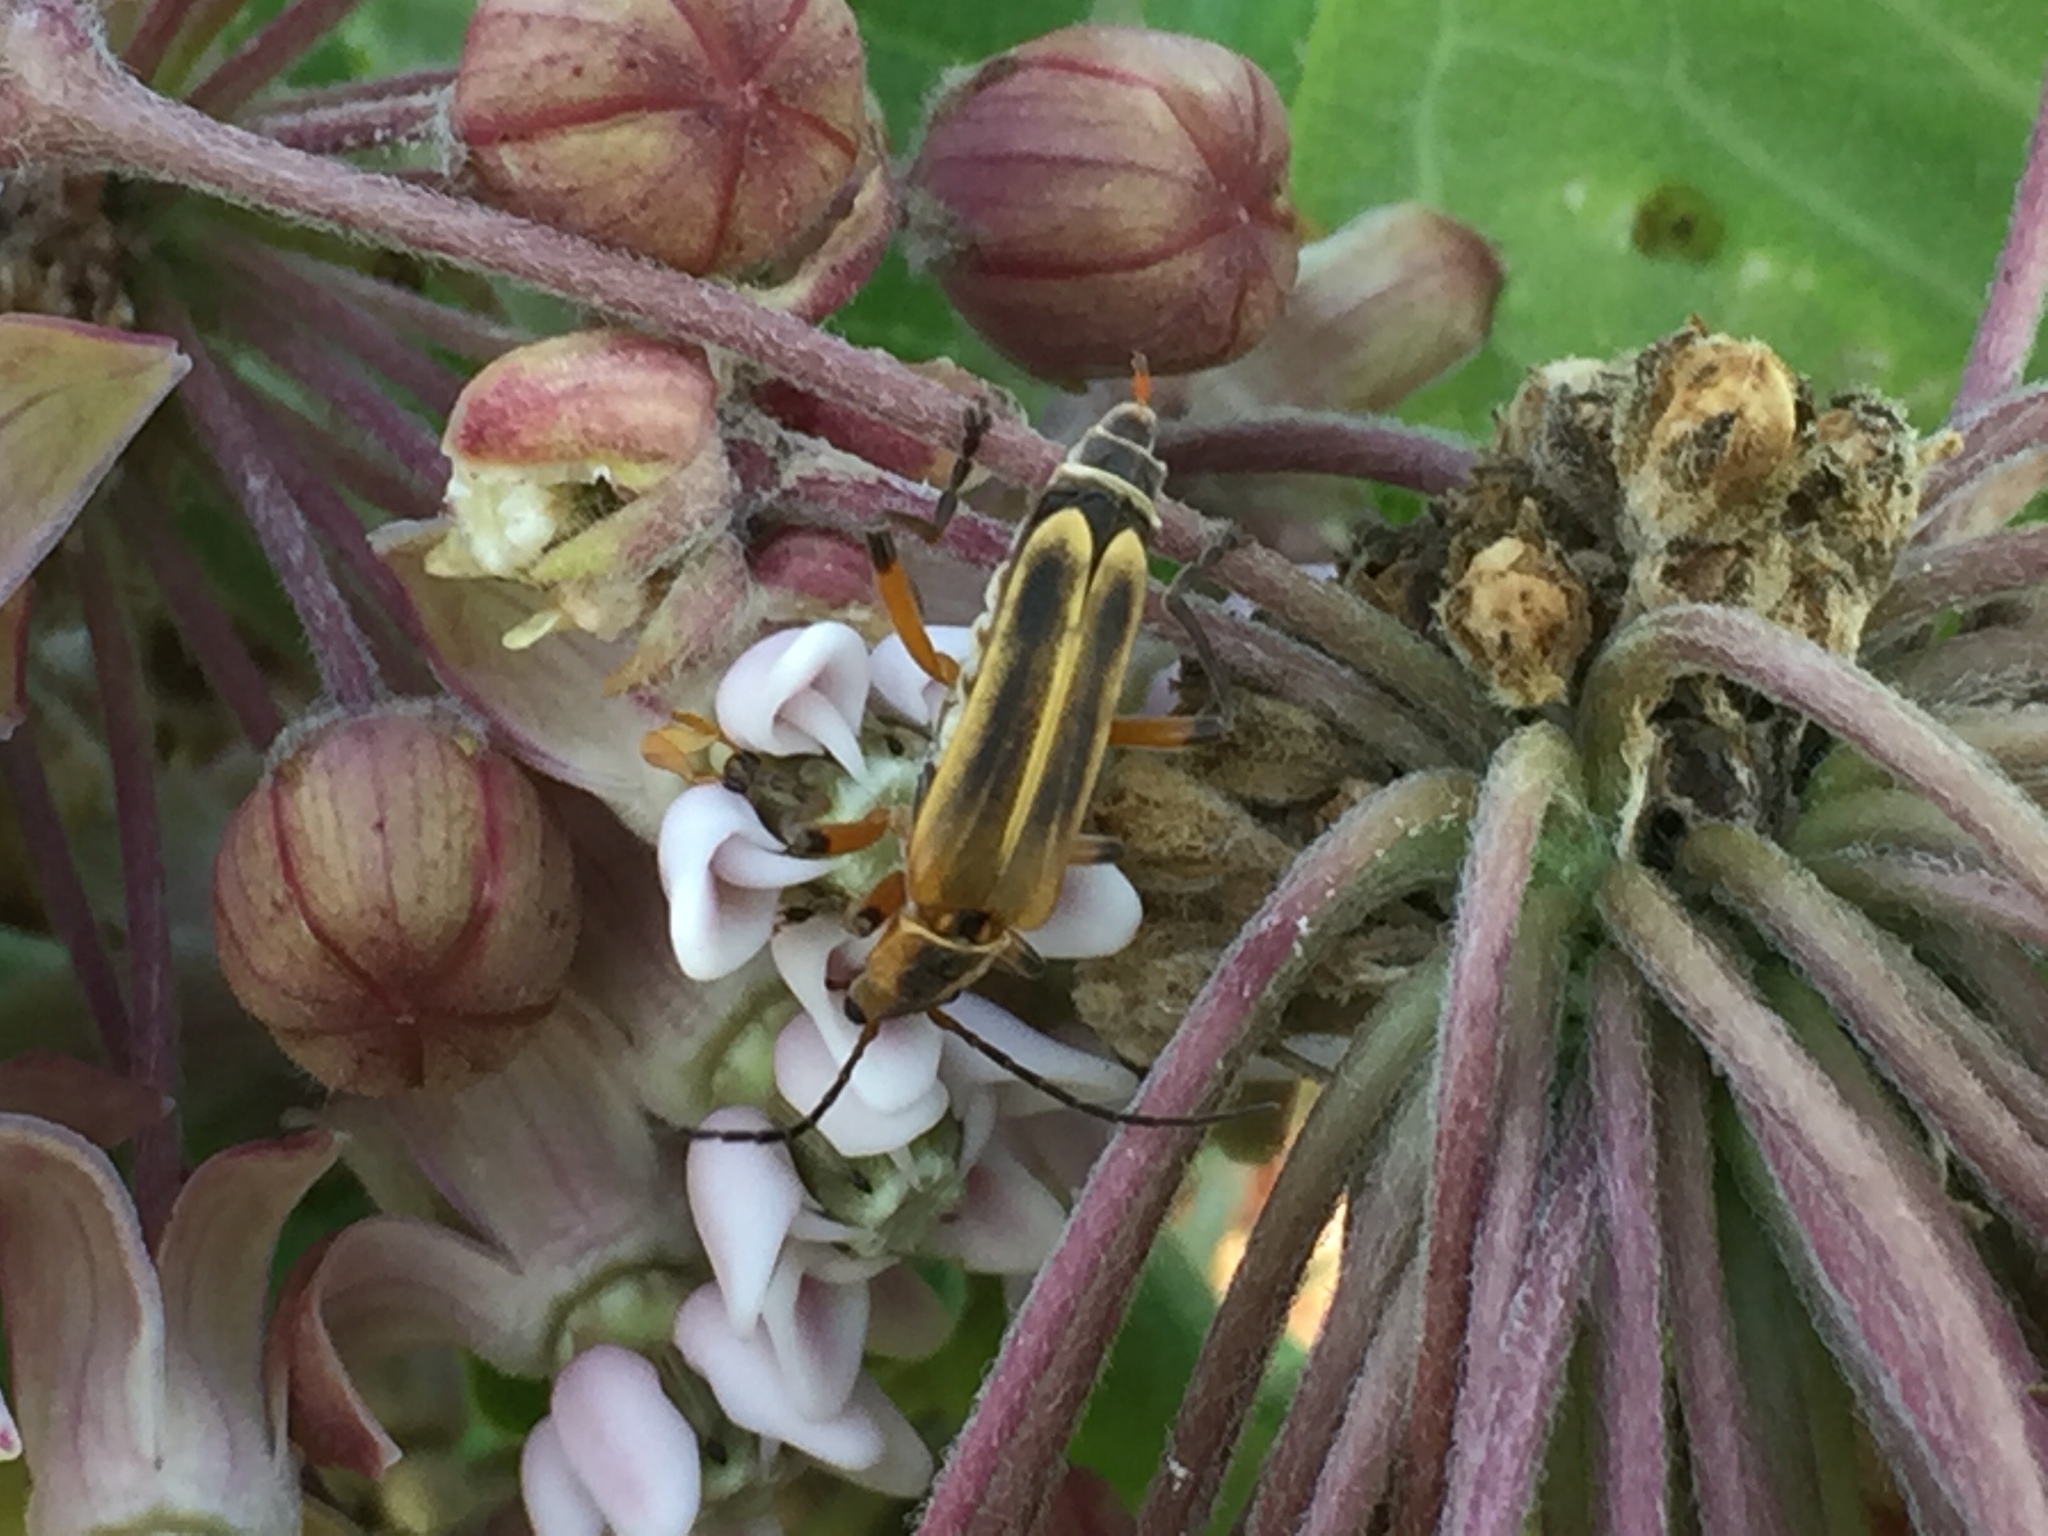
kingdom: Animalia
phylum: Arthropoda
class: Insecta
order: Coleoptera
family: Cantharidae
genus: Chauliognathus
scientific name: Chauliognathus marginatus
